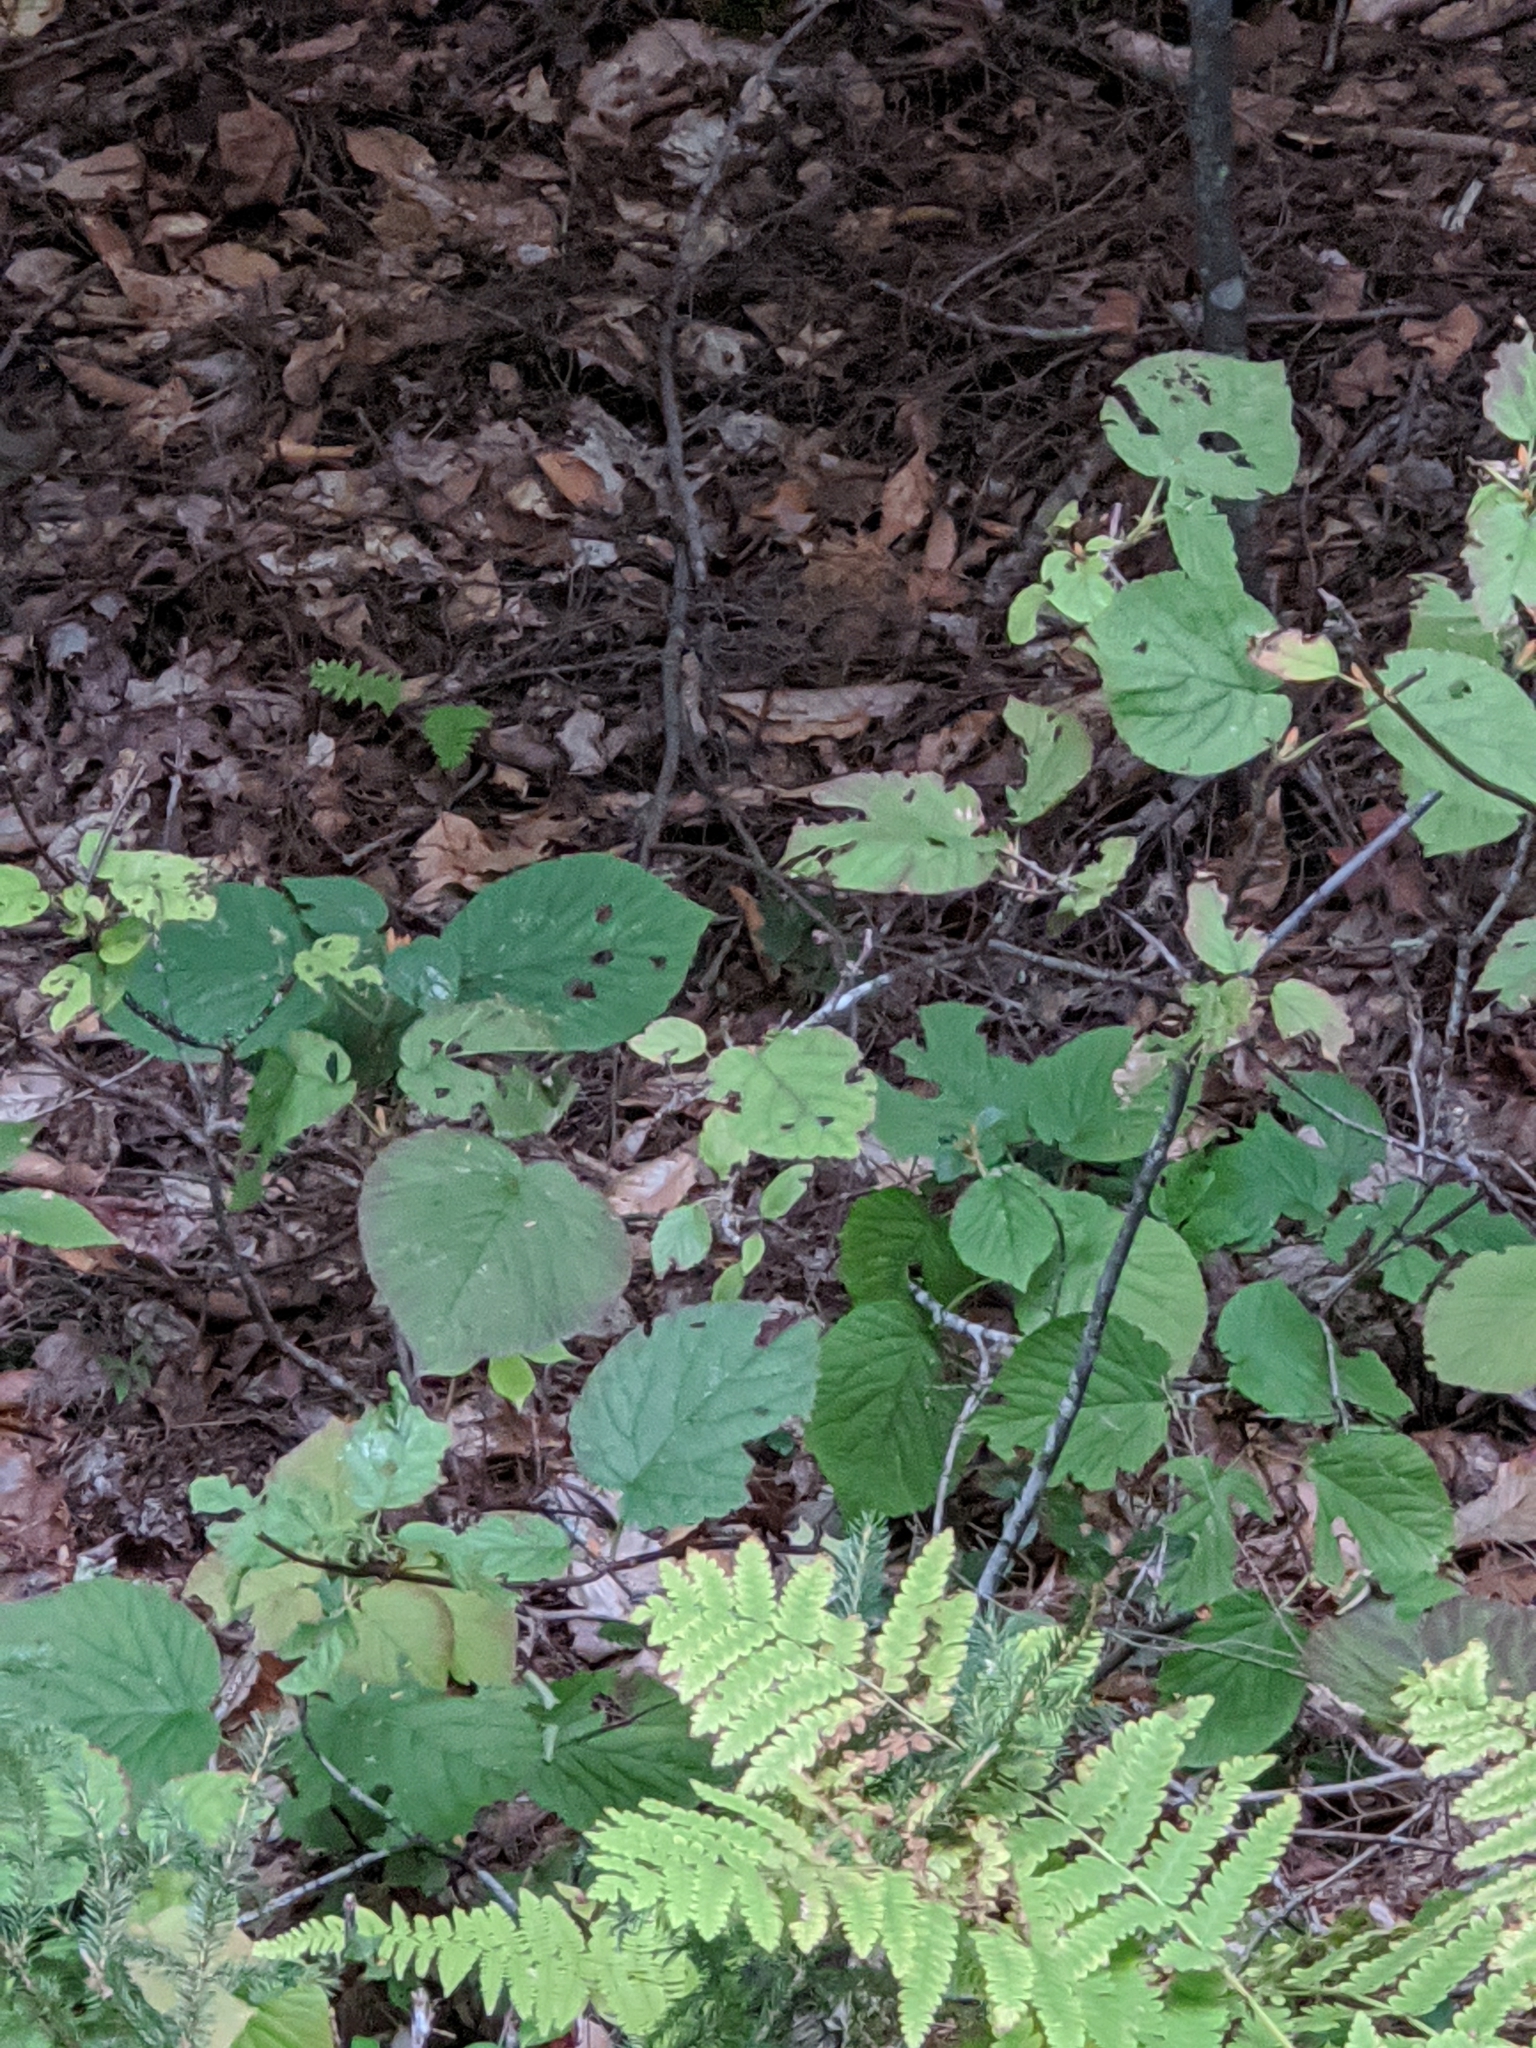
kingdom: Plantae
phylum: Tracheophyta
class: Magnoliopsida
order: Dipsacales
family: Viburnaceae
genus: Viburnum
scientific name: Viburnum lantanoides
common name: Hobblebush
